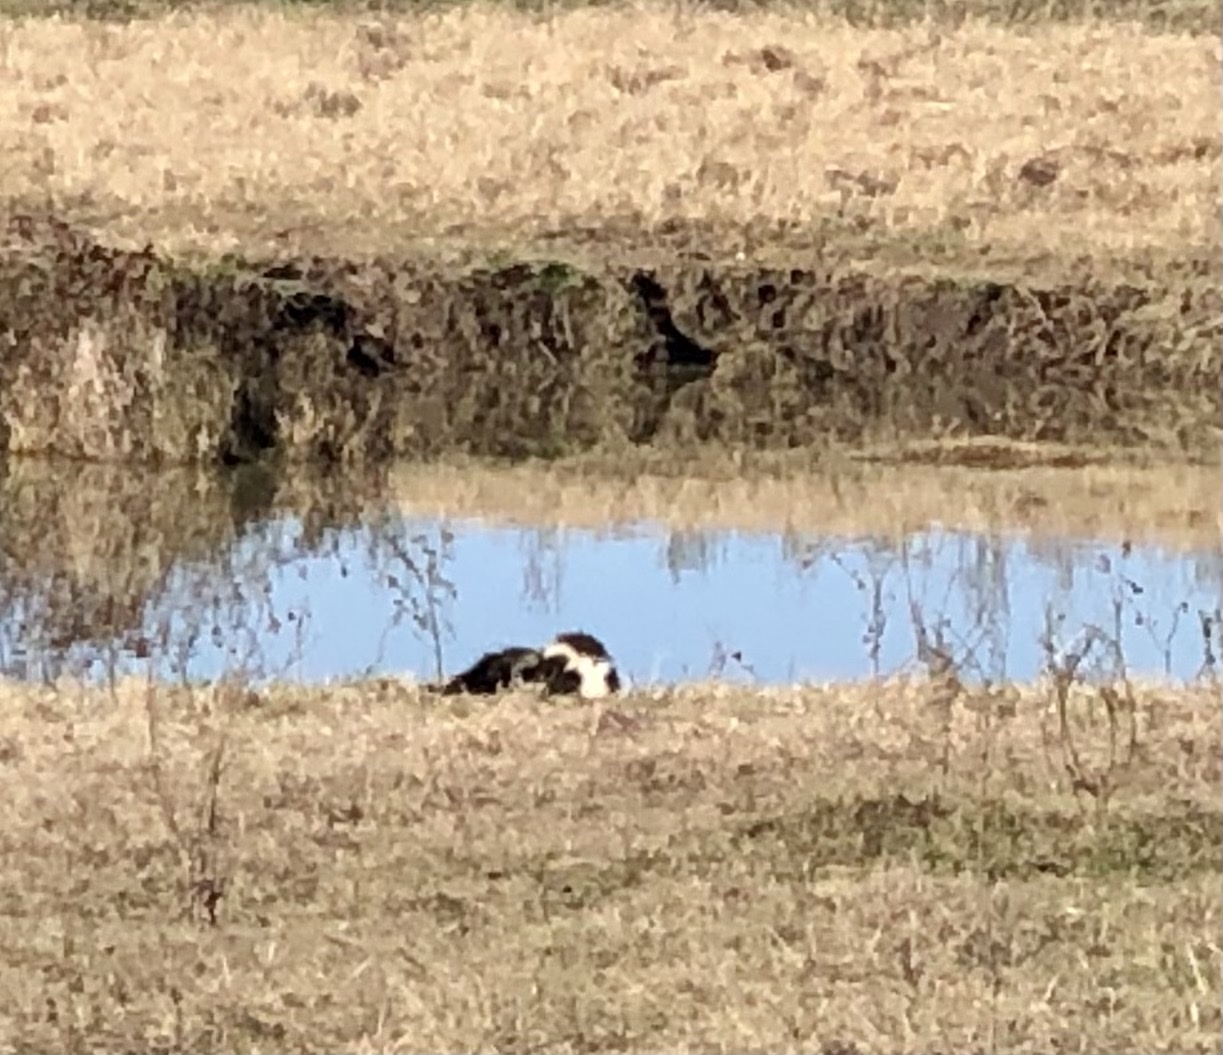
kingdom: Animalia
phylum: Chordata
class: Mammalia
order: Carnivora
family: Mephitidae
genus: Mephitis
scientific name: Mephitis mephitis
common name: Striped skunk
